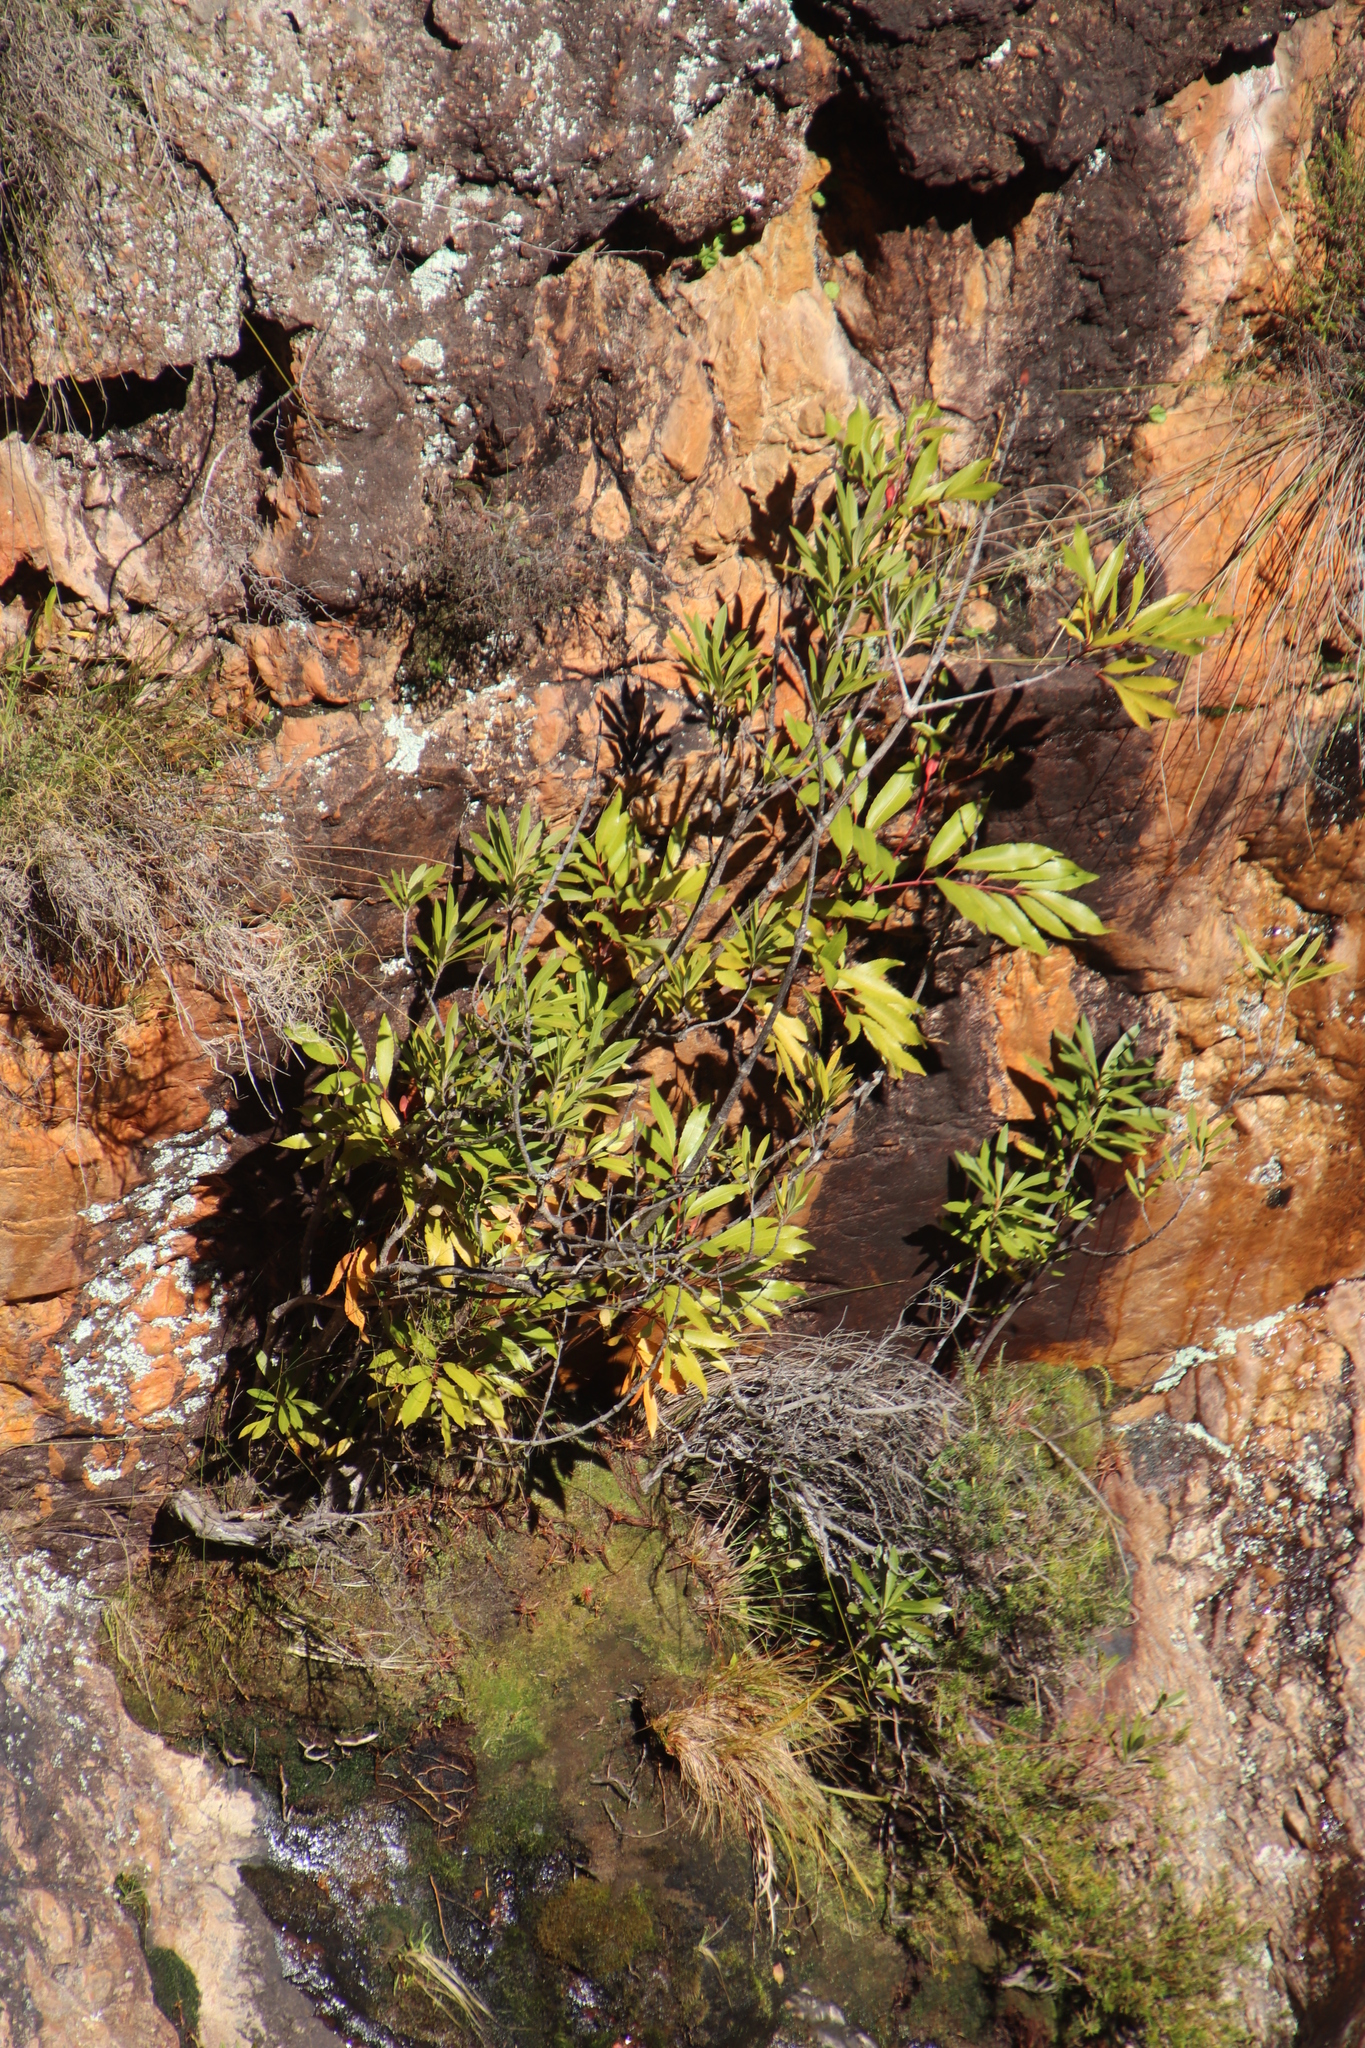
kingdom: Plantae
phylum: Tracheophyta
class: Magnoliopsida
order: Oxalidales
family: Cunoniaceae
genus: Cunonia
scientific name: Cunonia capensis
